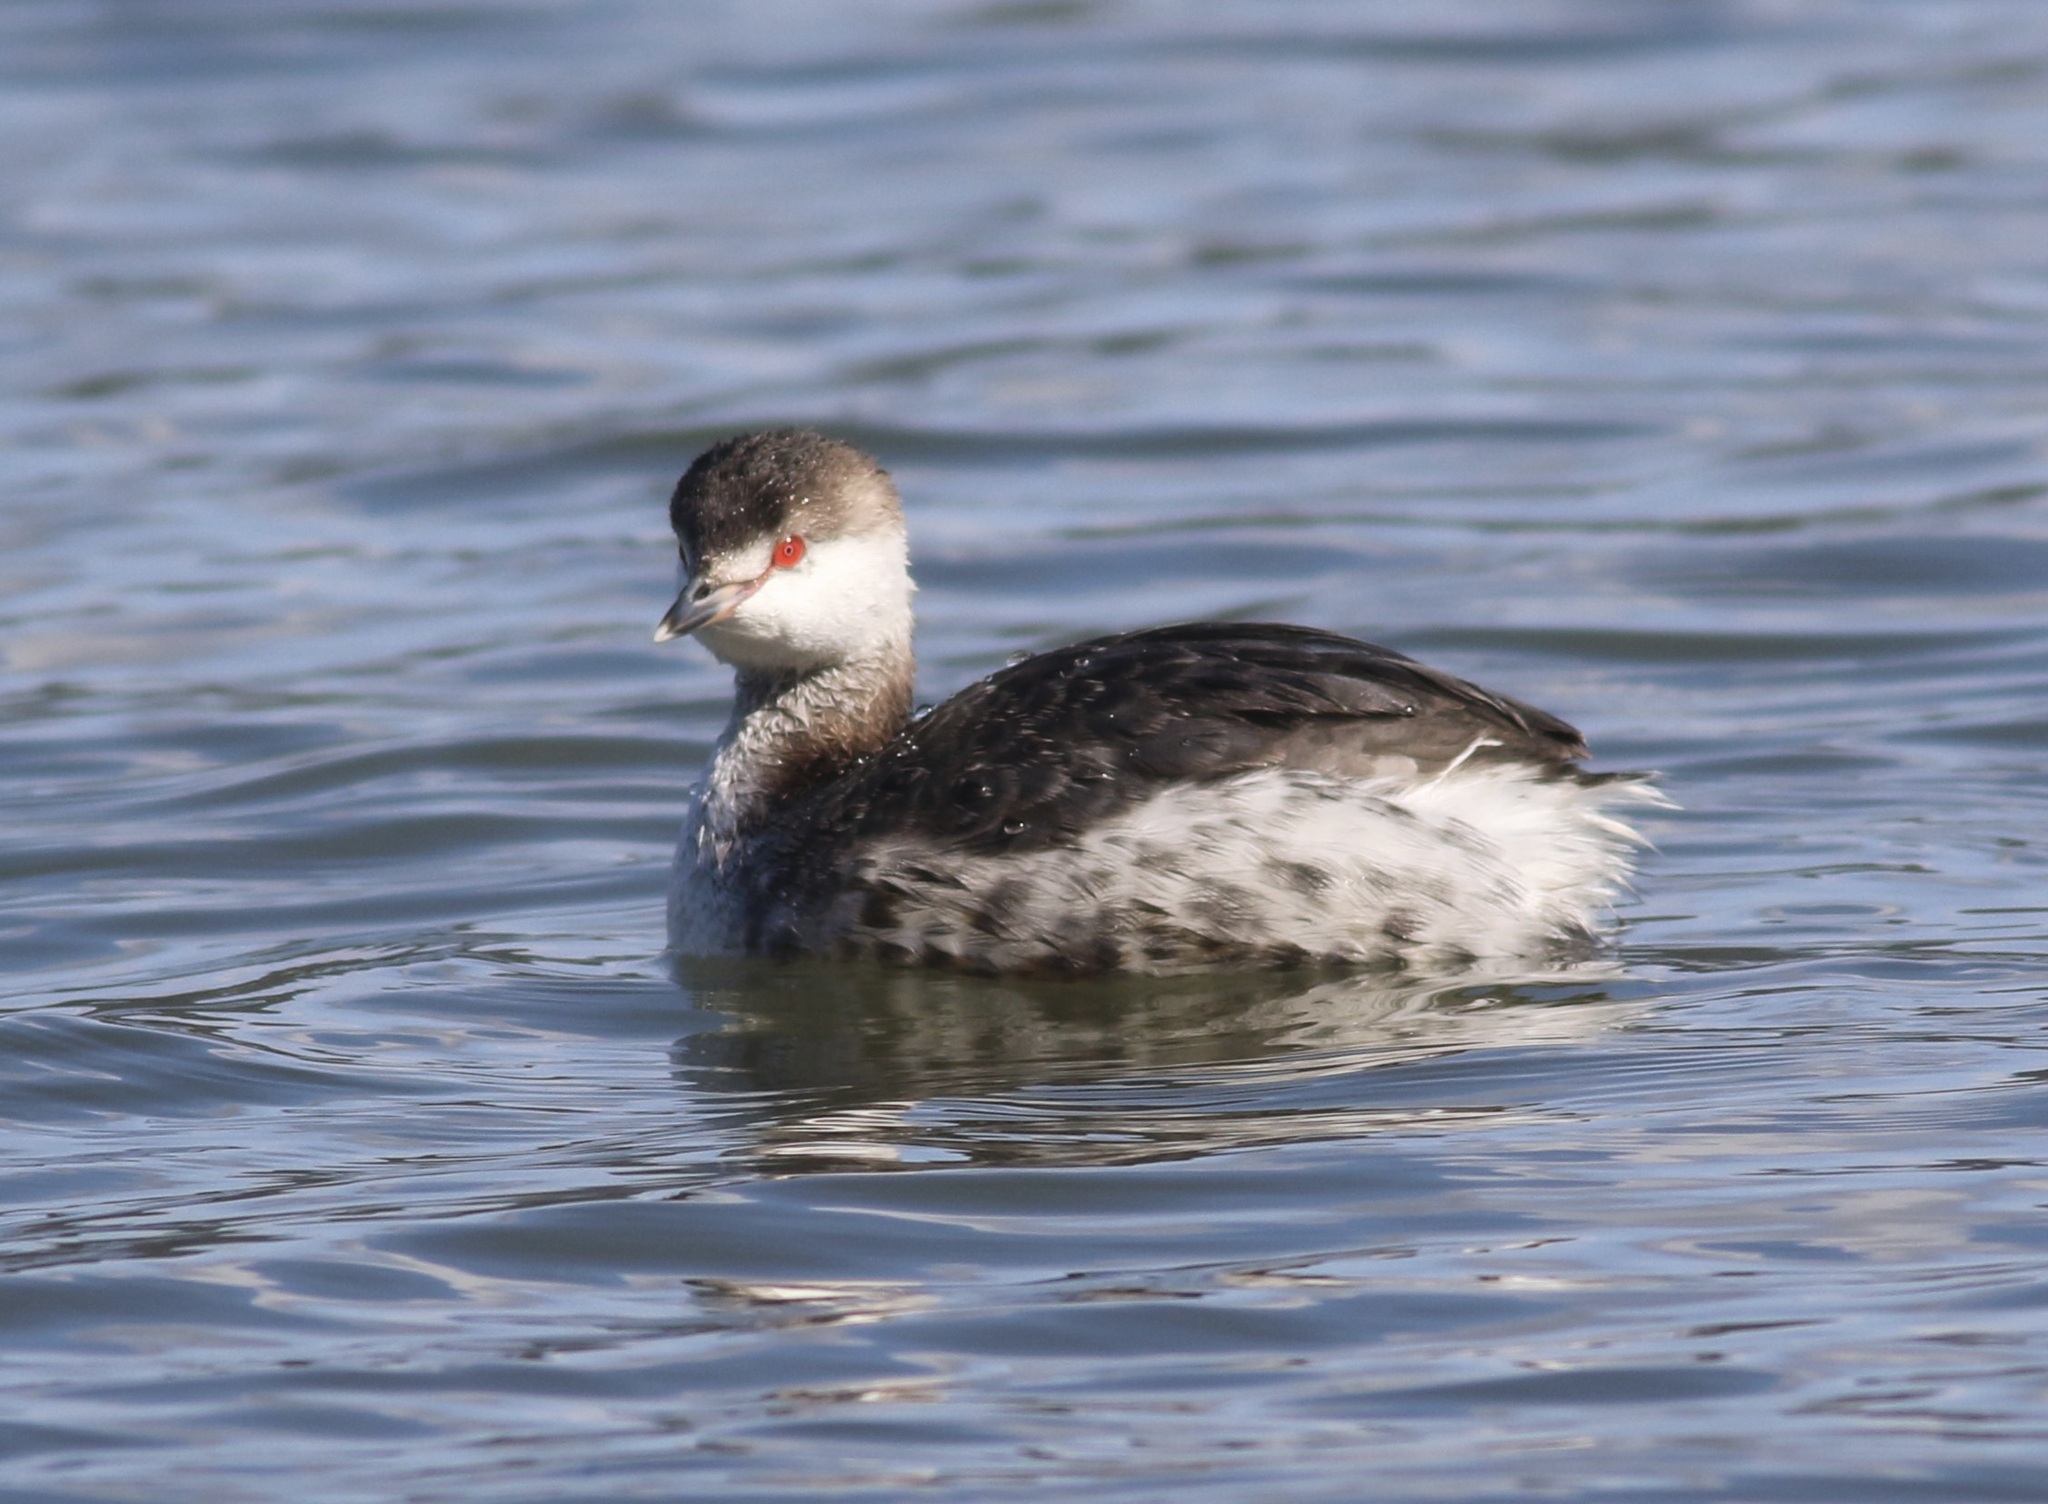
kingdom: Animalia
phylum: Chordata
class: Aves
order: Podicipediformes
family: Podicipedidae
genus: Podiceps
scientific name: Podiceps auritus
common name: Horned grebe
